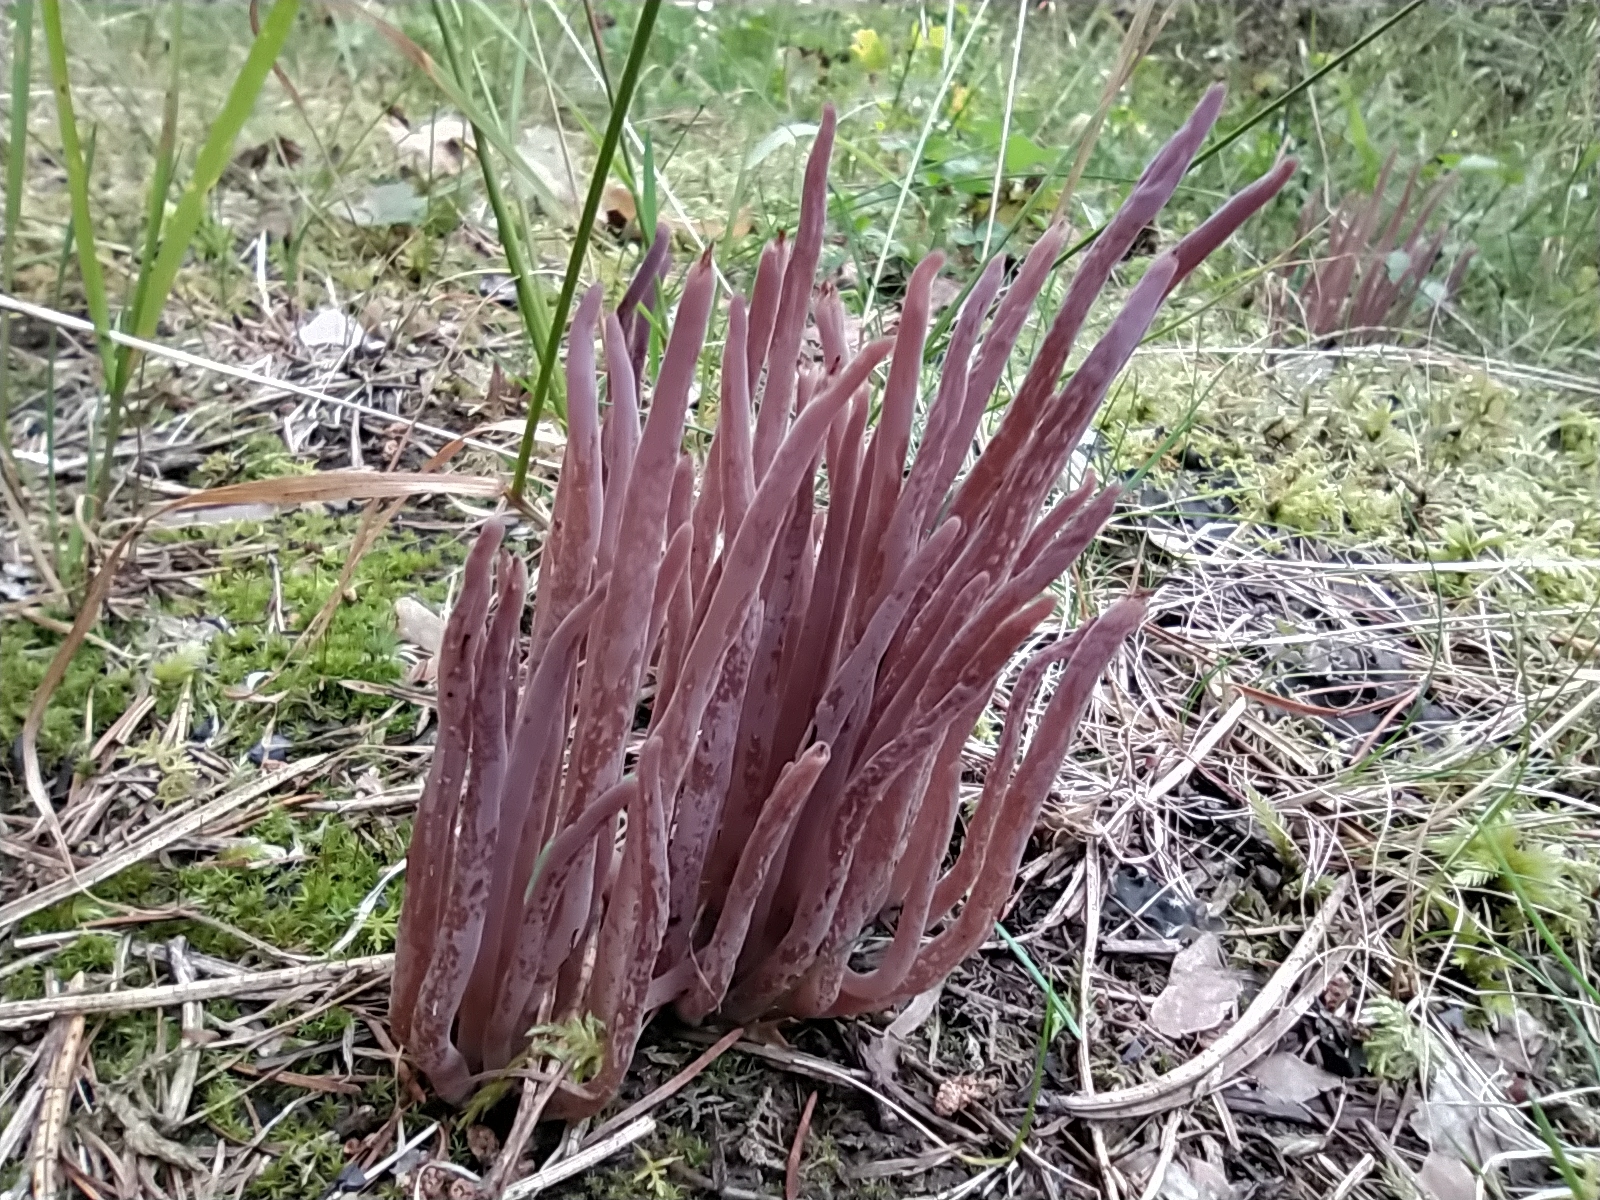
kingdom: Fungi
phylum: Basidiomycota
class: Agaricomycetes
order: Hymenochaetales
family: Rickenellaceae
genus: Alloclavaria
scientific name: Alloclavaria purpurea
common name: Purple spindles
